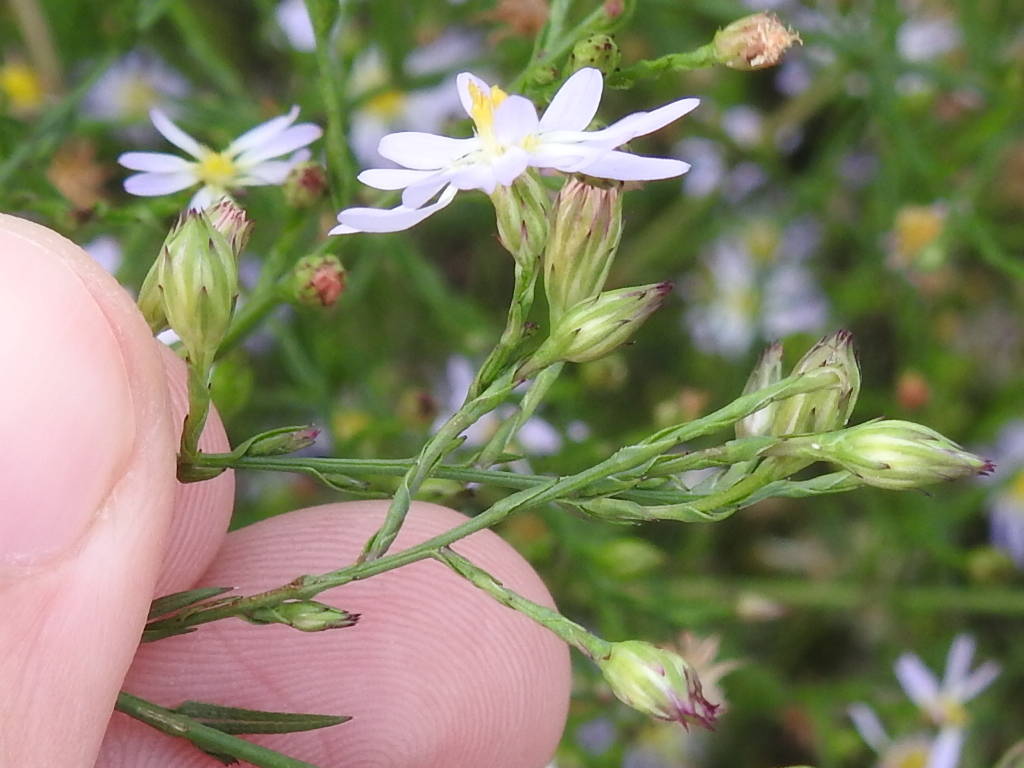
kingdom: Plantae
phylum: Tracheophyta
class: Magnoliopsida
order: Asterales
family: Asteraceae
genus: Symphyotrichum
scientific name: Symphyotrichum divaricatum
